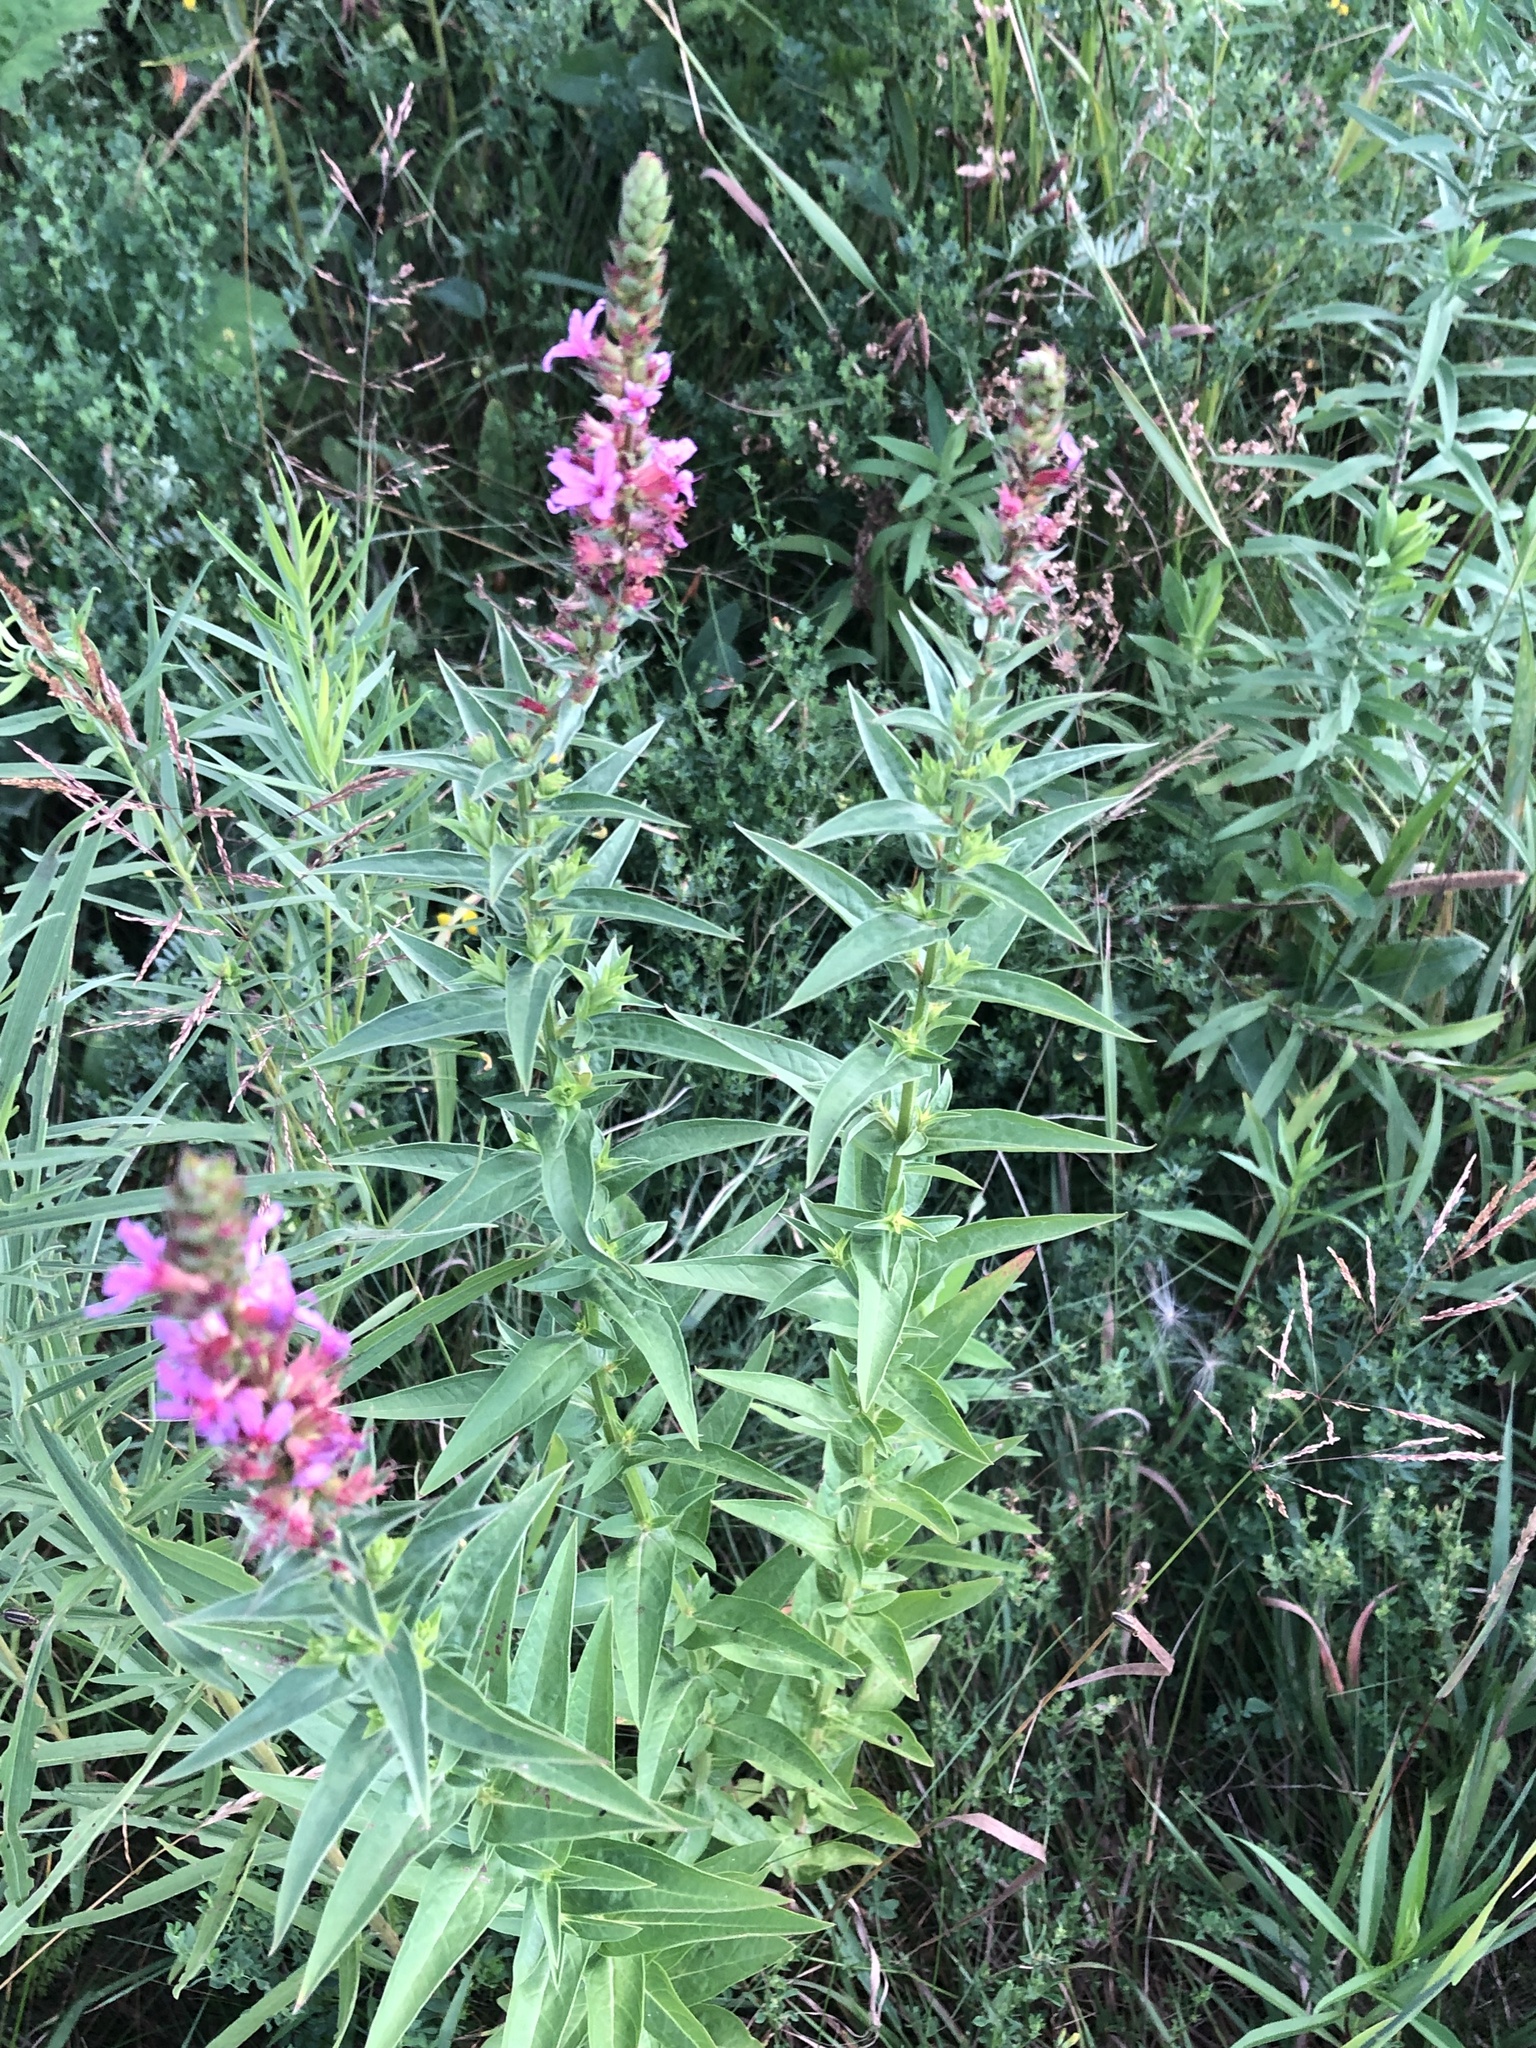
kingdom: Plantae
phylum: Tracheophyta
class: Magnoliopsida
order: Myrtales
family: Lythraceae
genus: Lythrum
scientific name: Lythrum salicaria
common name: Purple loosestrife
